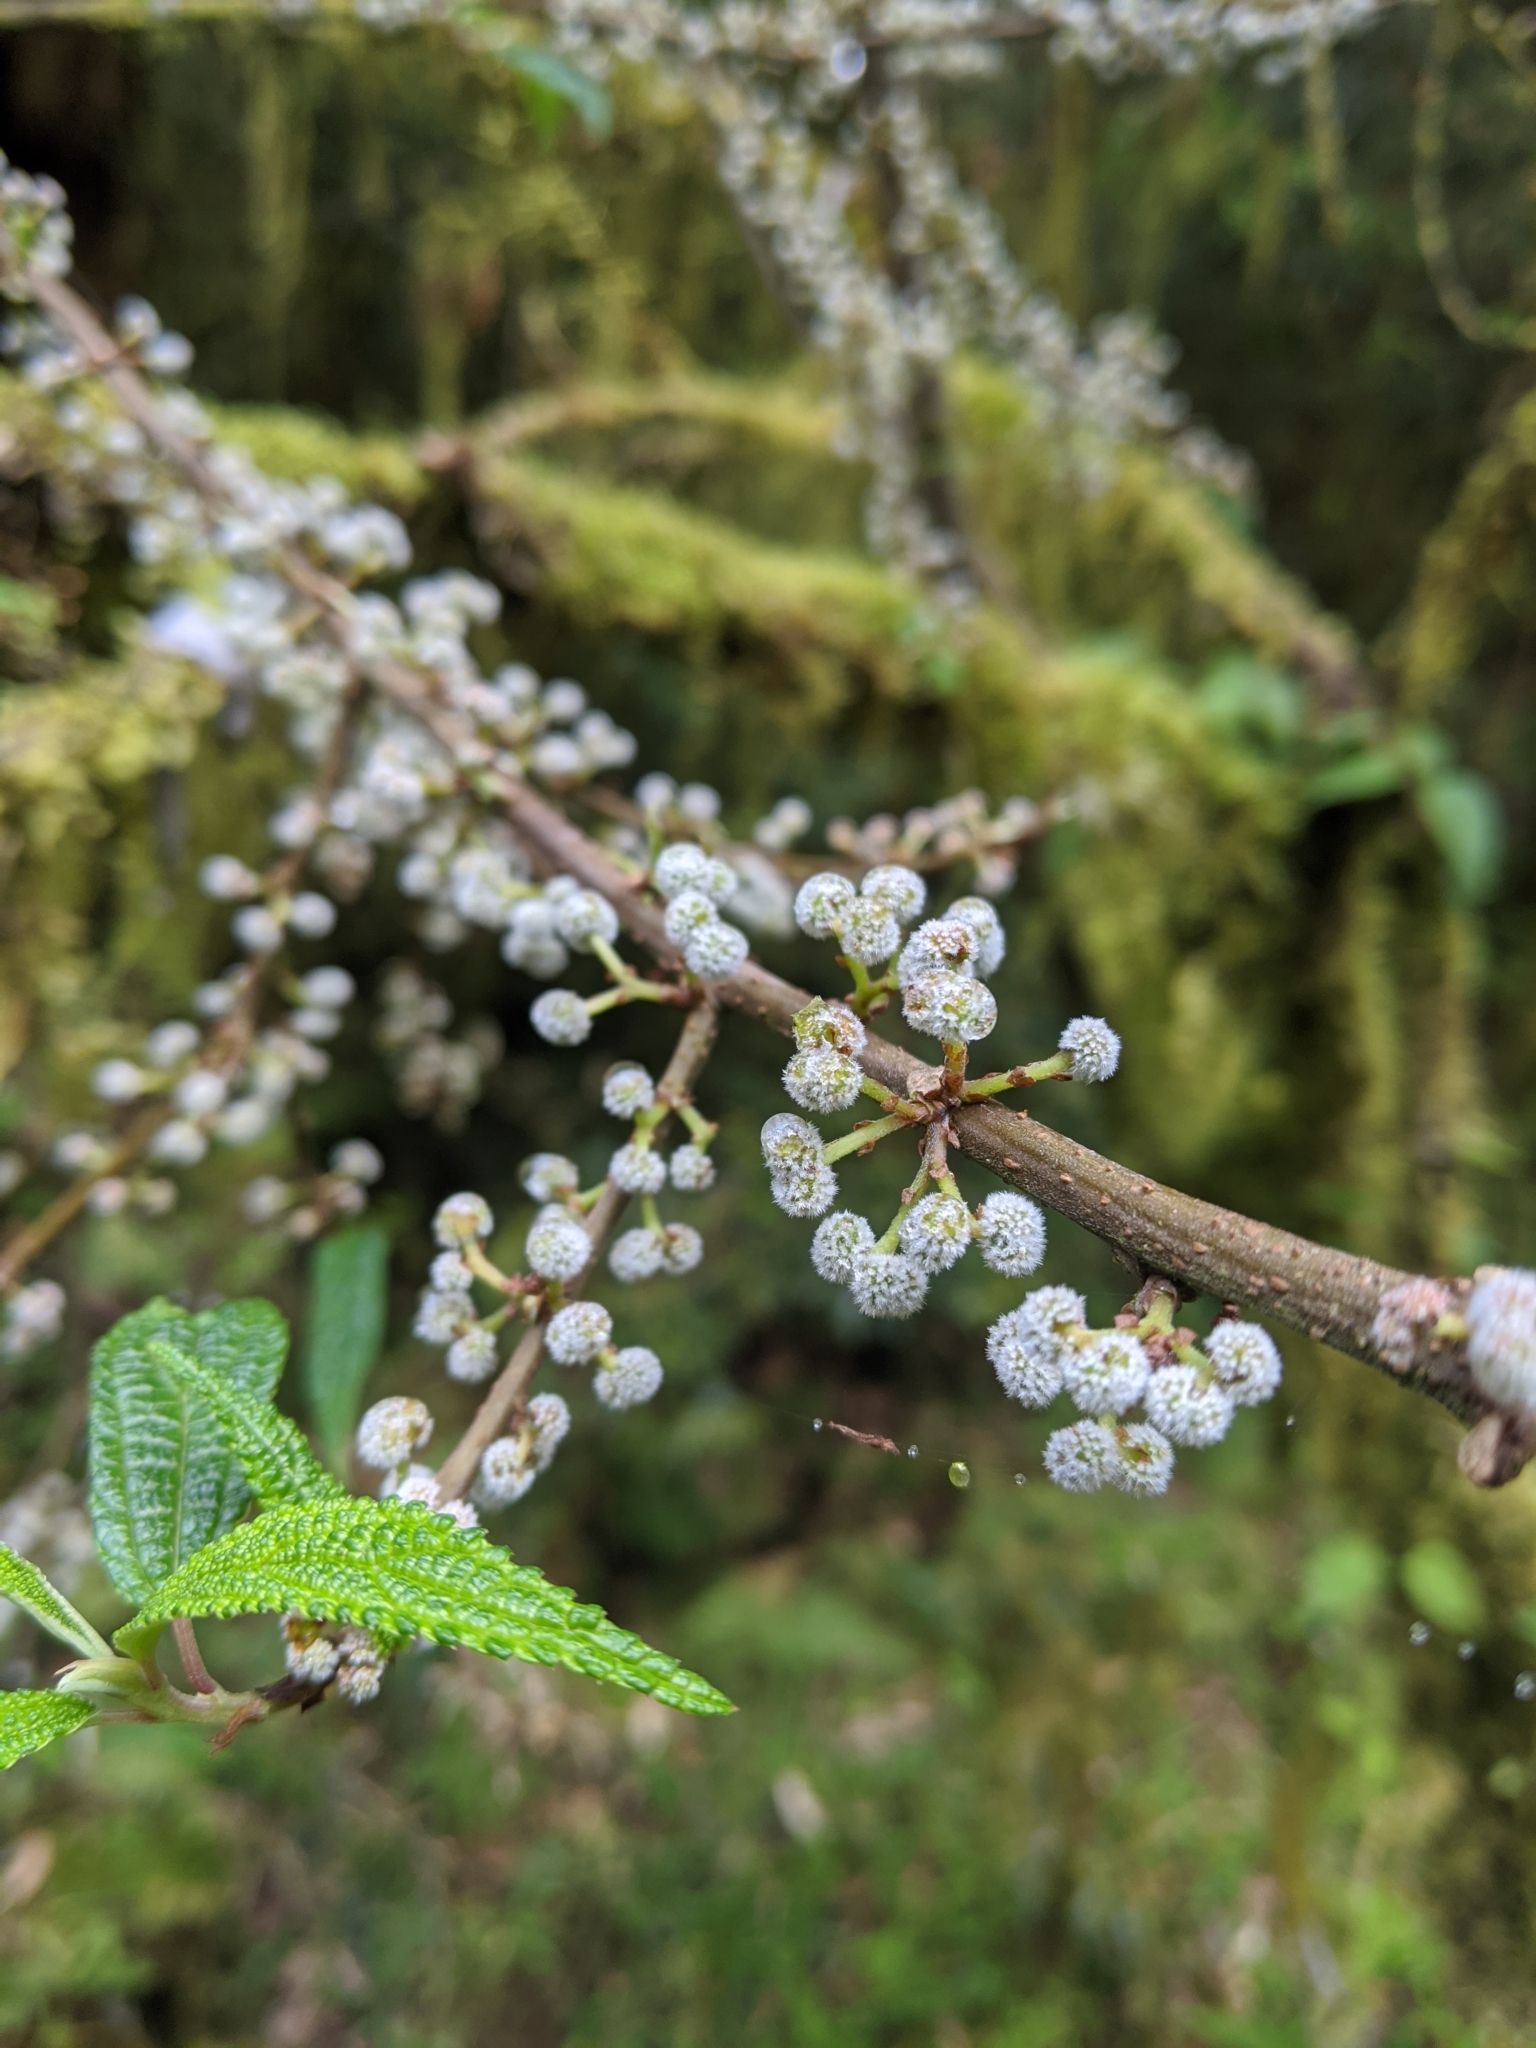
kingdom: Plantae
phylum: Tracheophyta
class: Magnoliopsida
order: Rosales
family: Urticaceae
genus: Debregeasia
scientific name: Debregeasia orientalis
